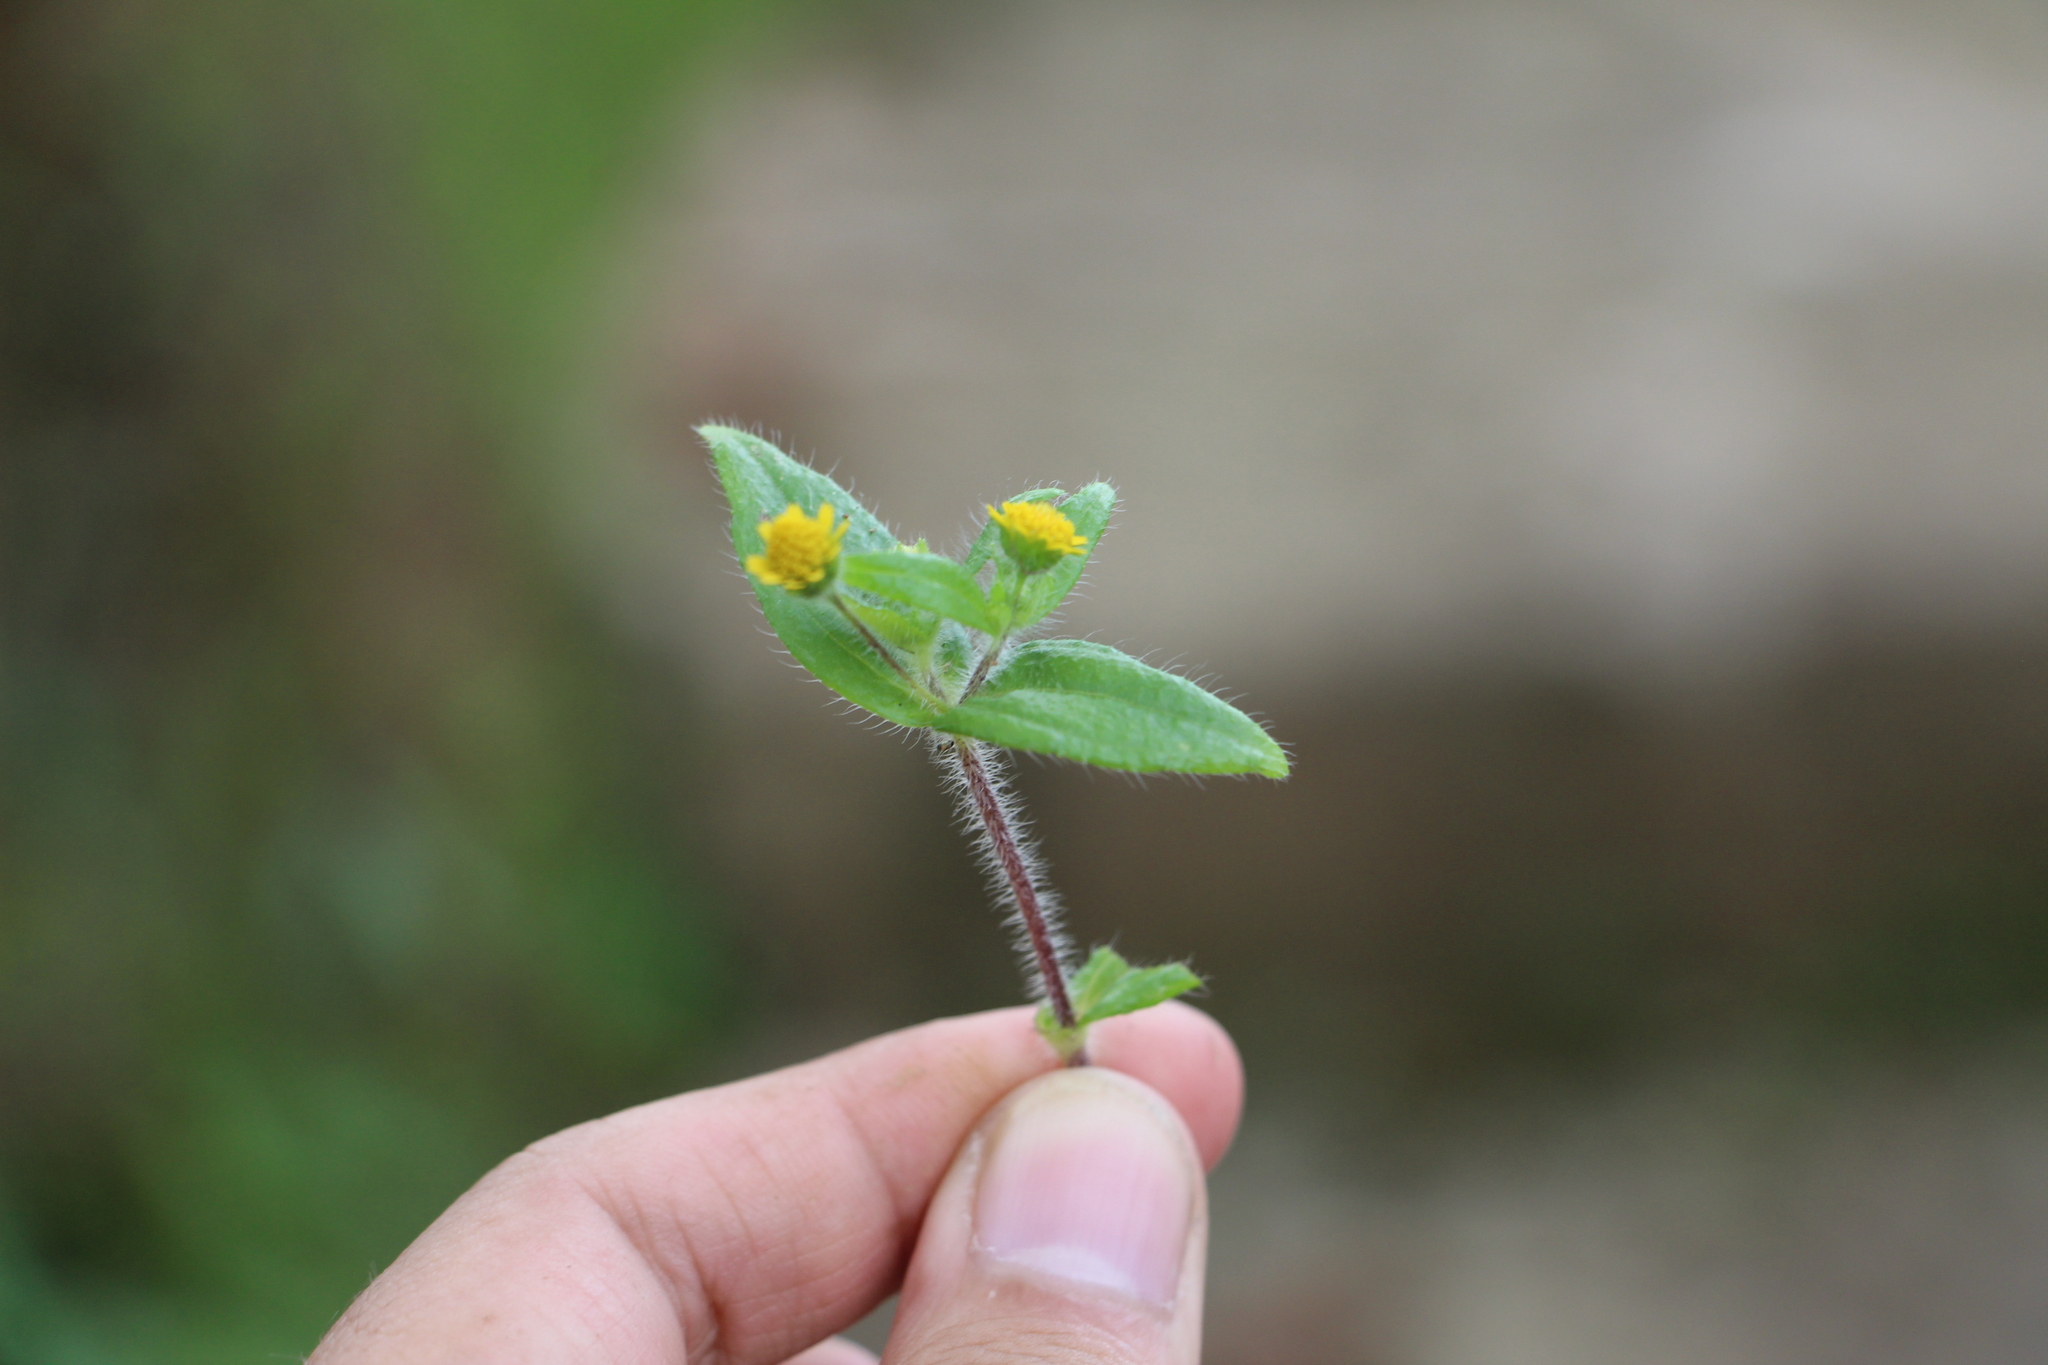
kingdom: Plantae
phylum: Tracheophyta
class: Magnoliopsida
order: Asterales
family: Asteraceae
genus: Jaegeria
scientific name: Jaegeria hirta
